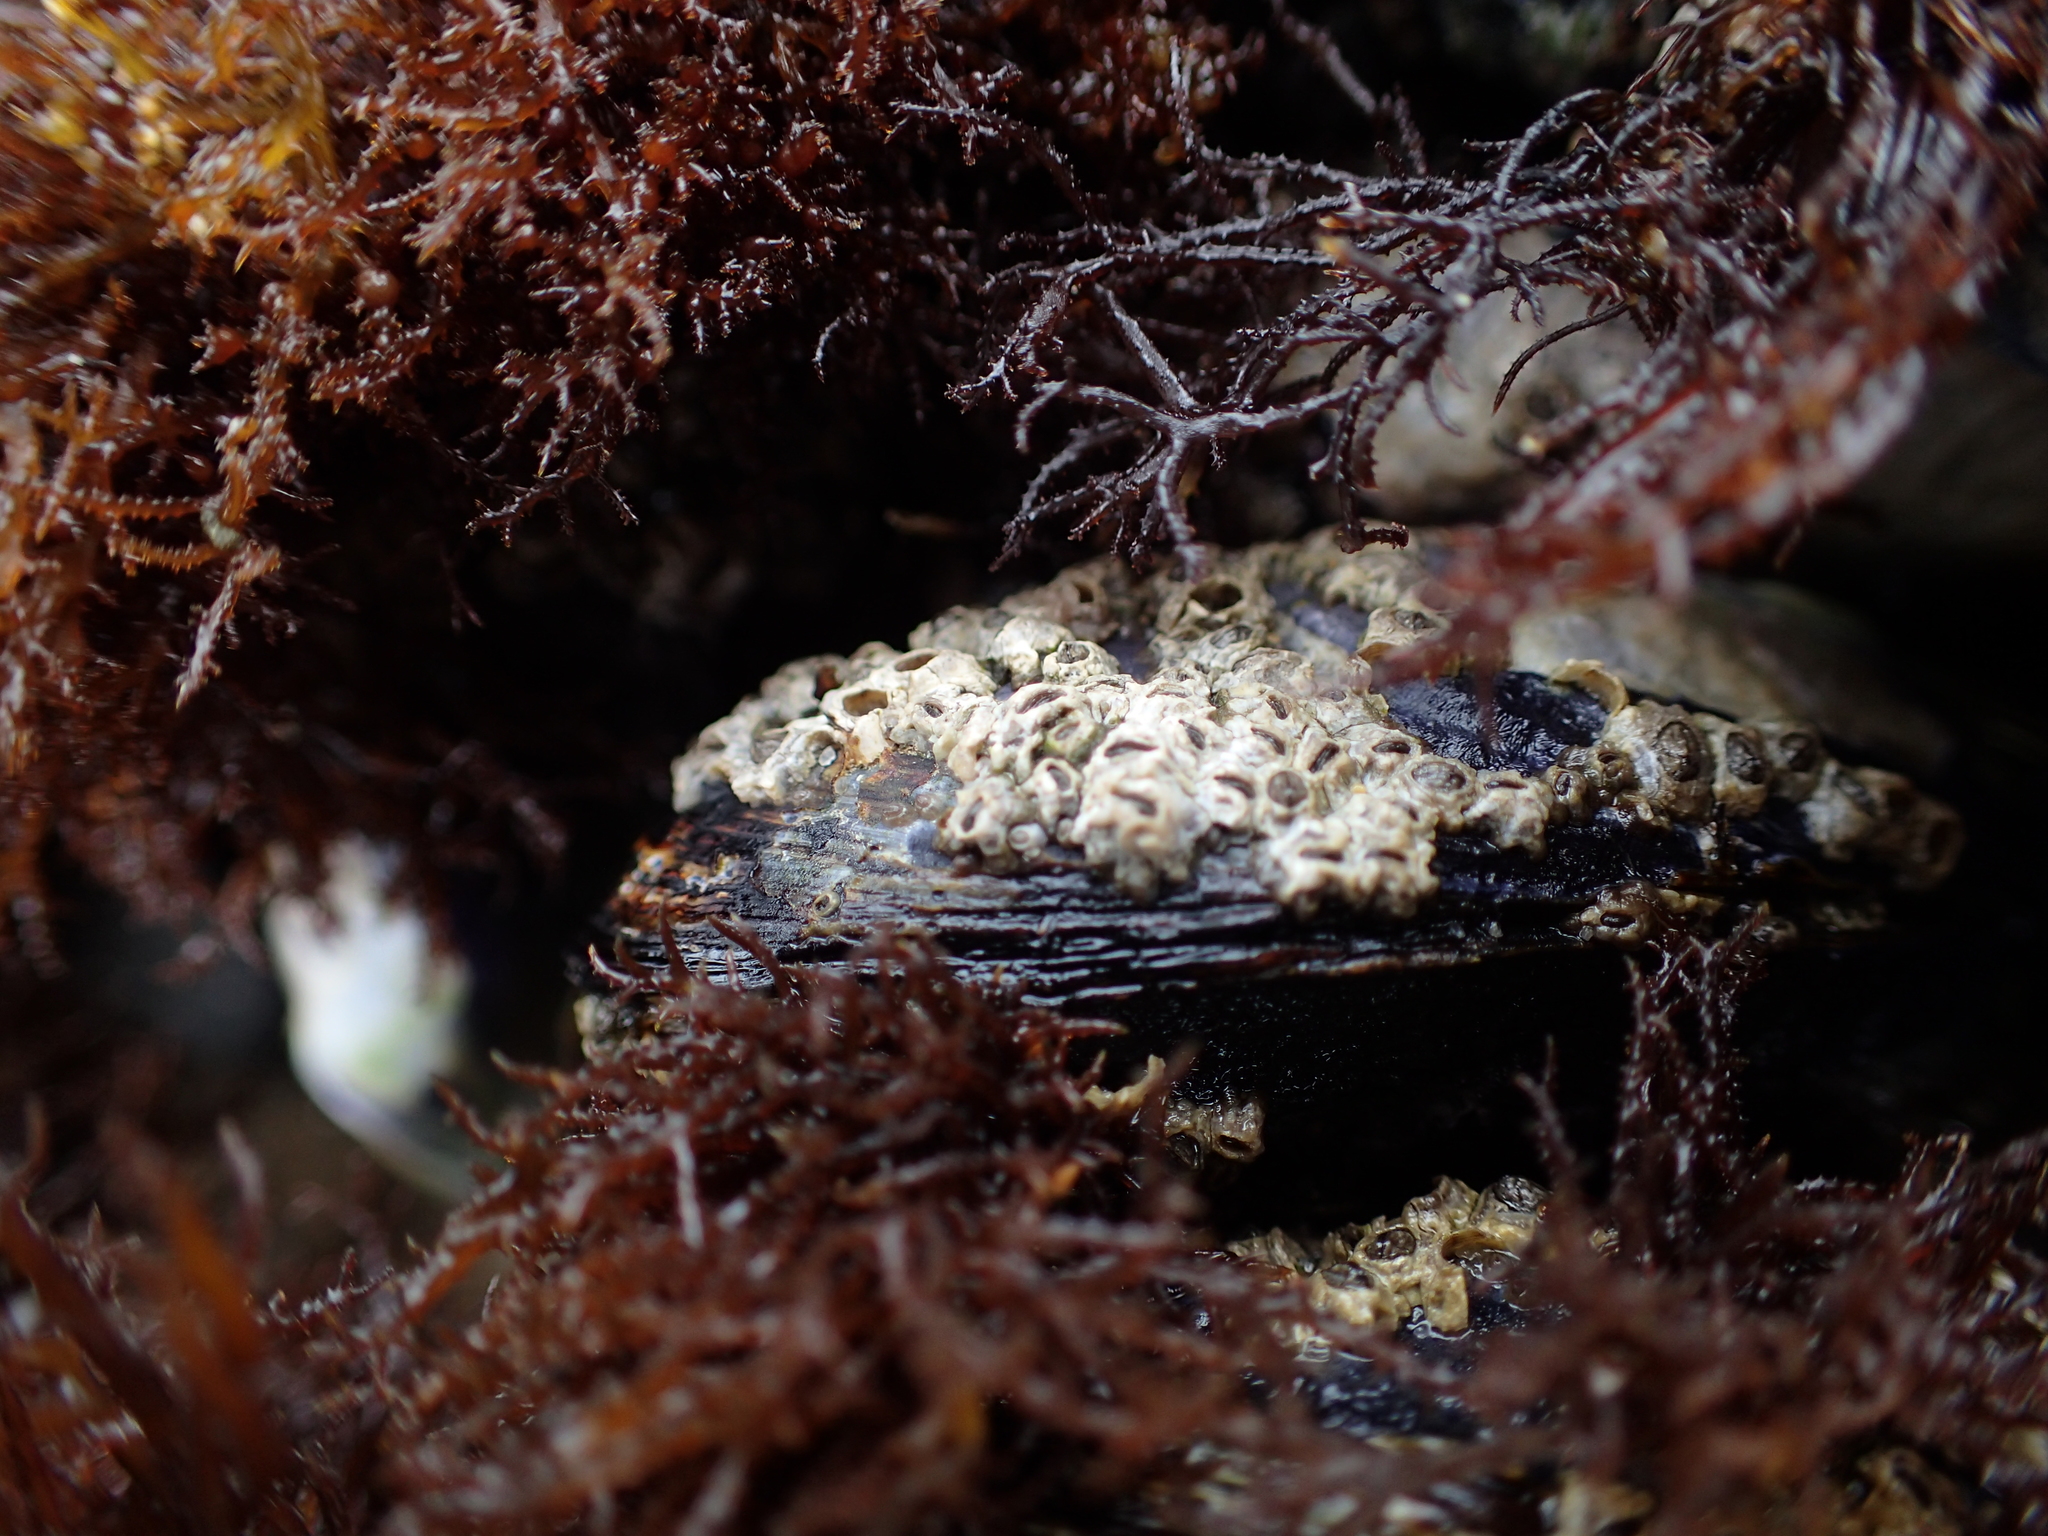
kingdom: Animalia
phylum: Mollusca
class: Bivalvia
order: Mytilida
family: Mytilidae
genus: Mytilus
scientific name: Mytilus californianus
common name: California mussel
